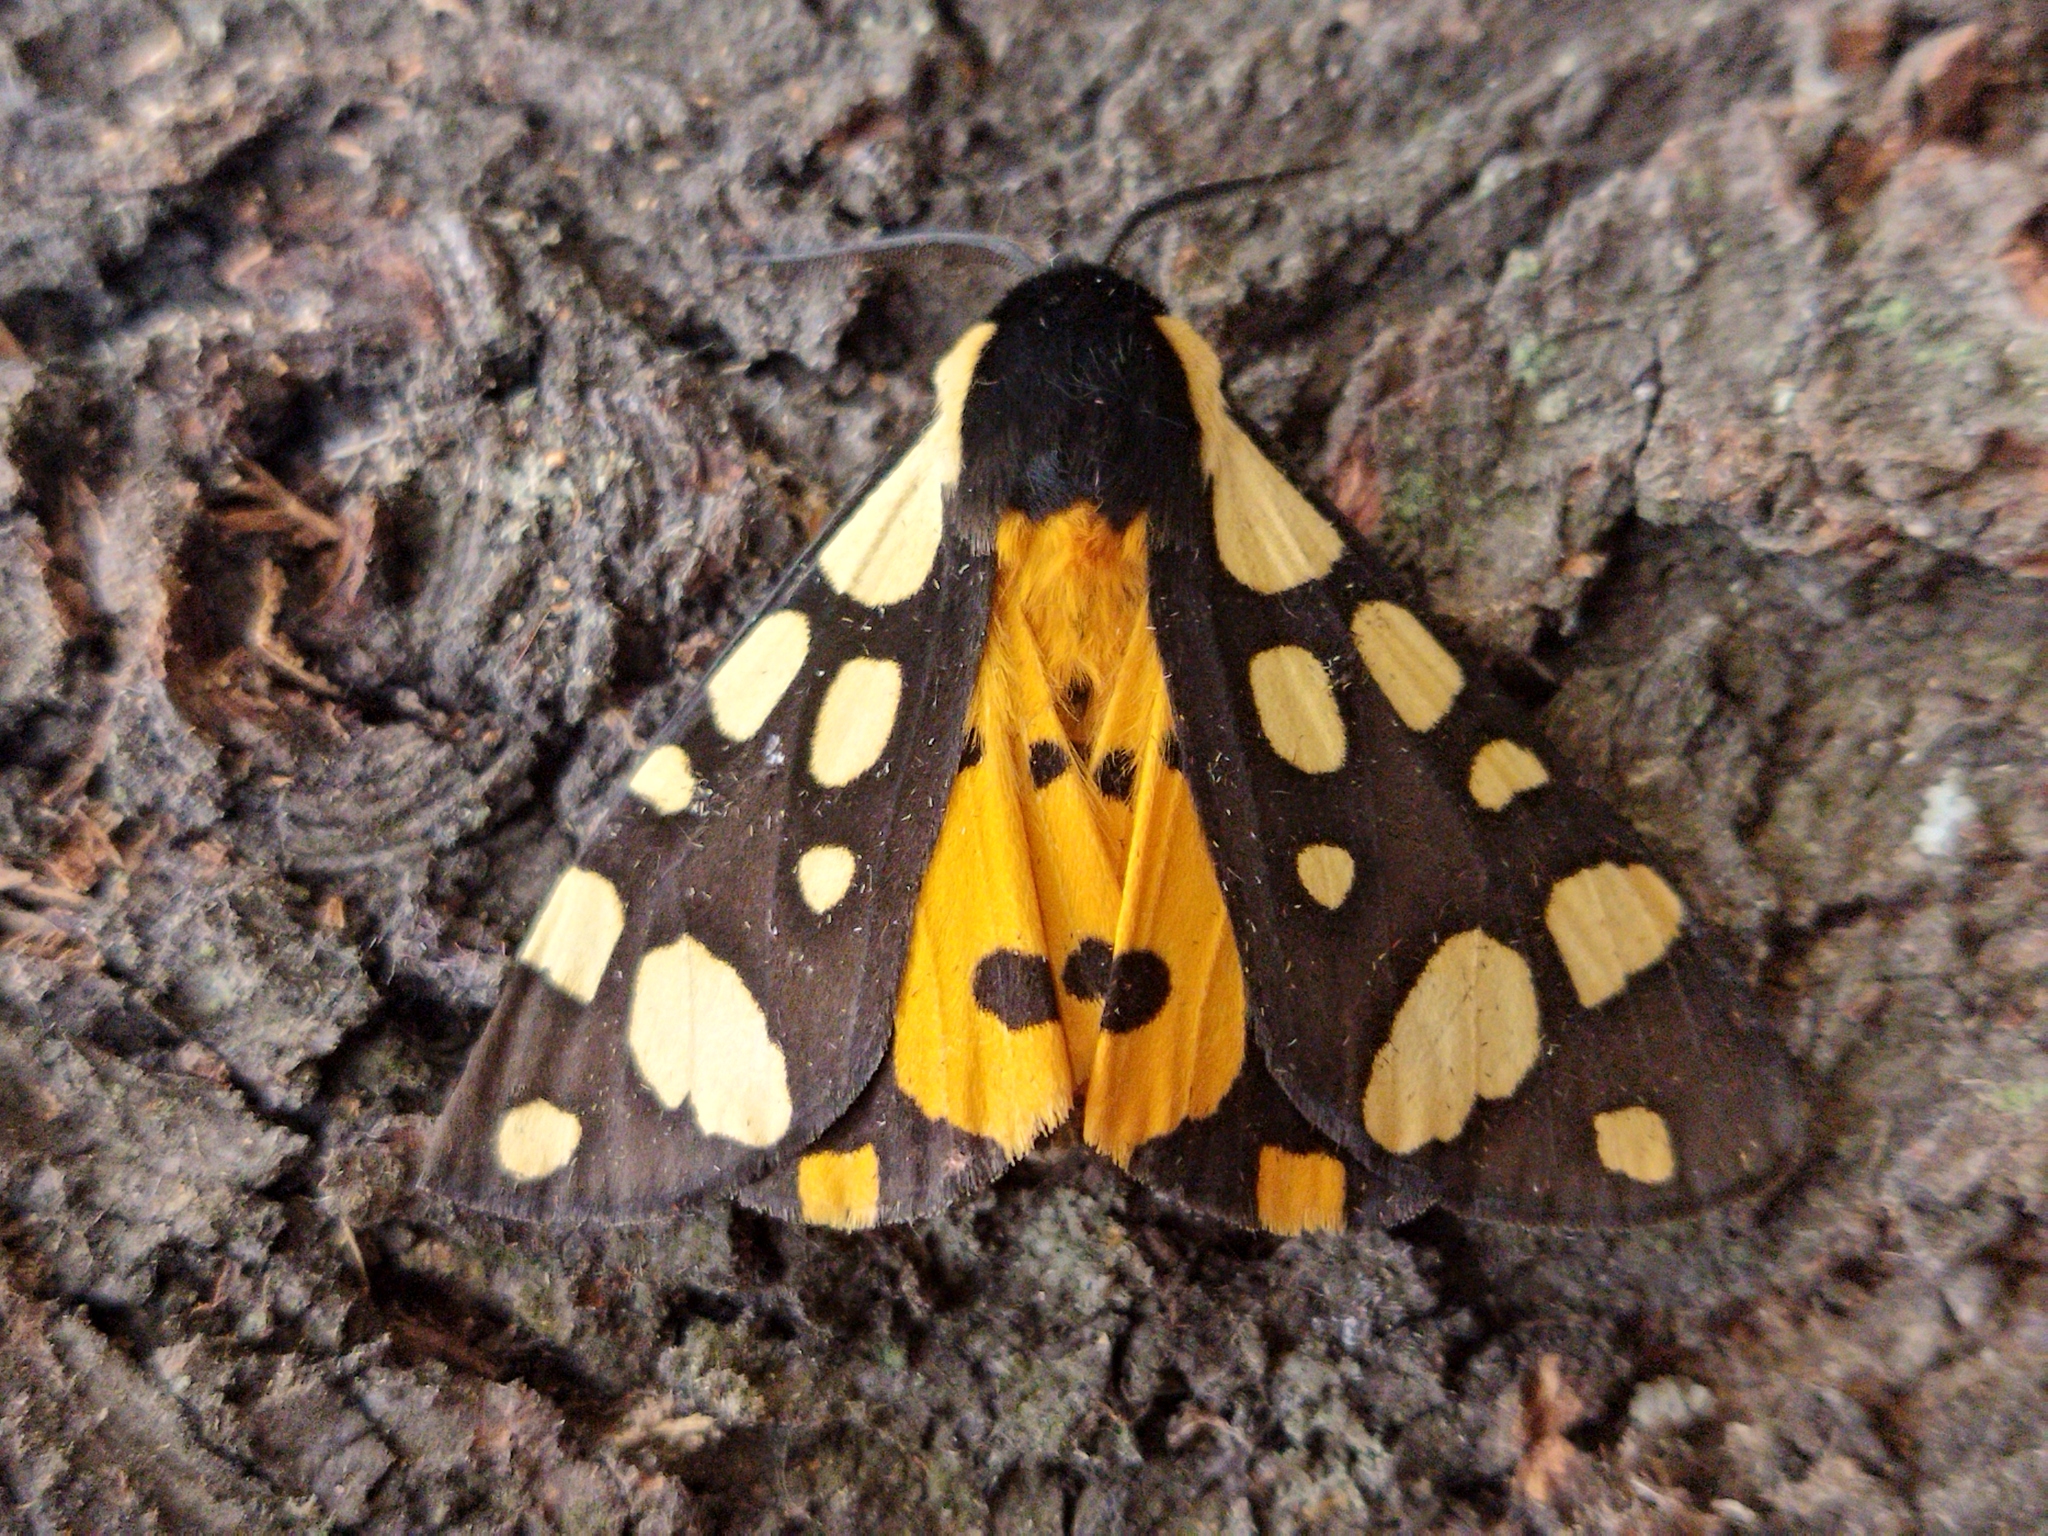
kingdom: Animalia
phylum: Arthropoda
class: Insecta
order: Lepidoptera
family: Erebidae
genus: Epicallia
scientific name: Epicallia villica
